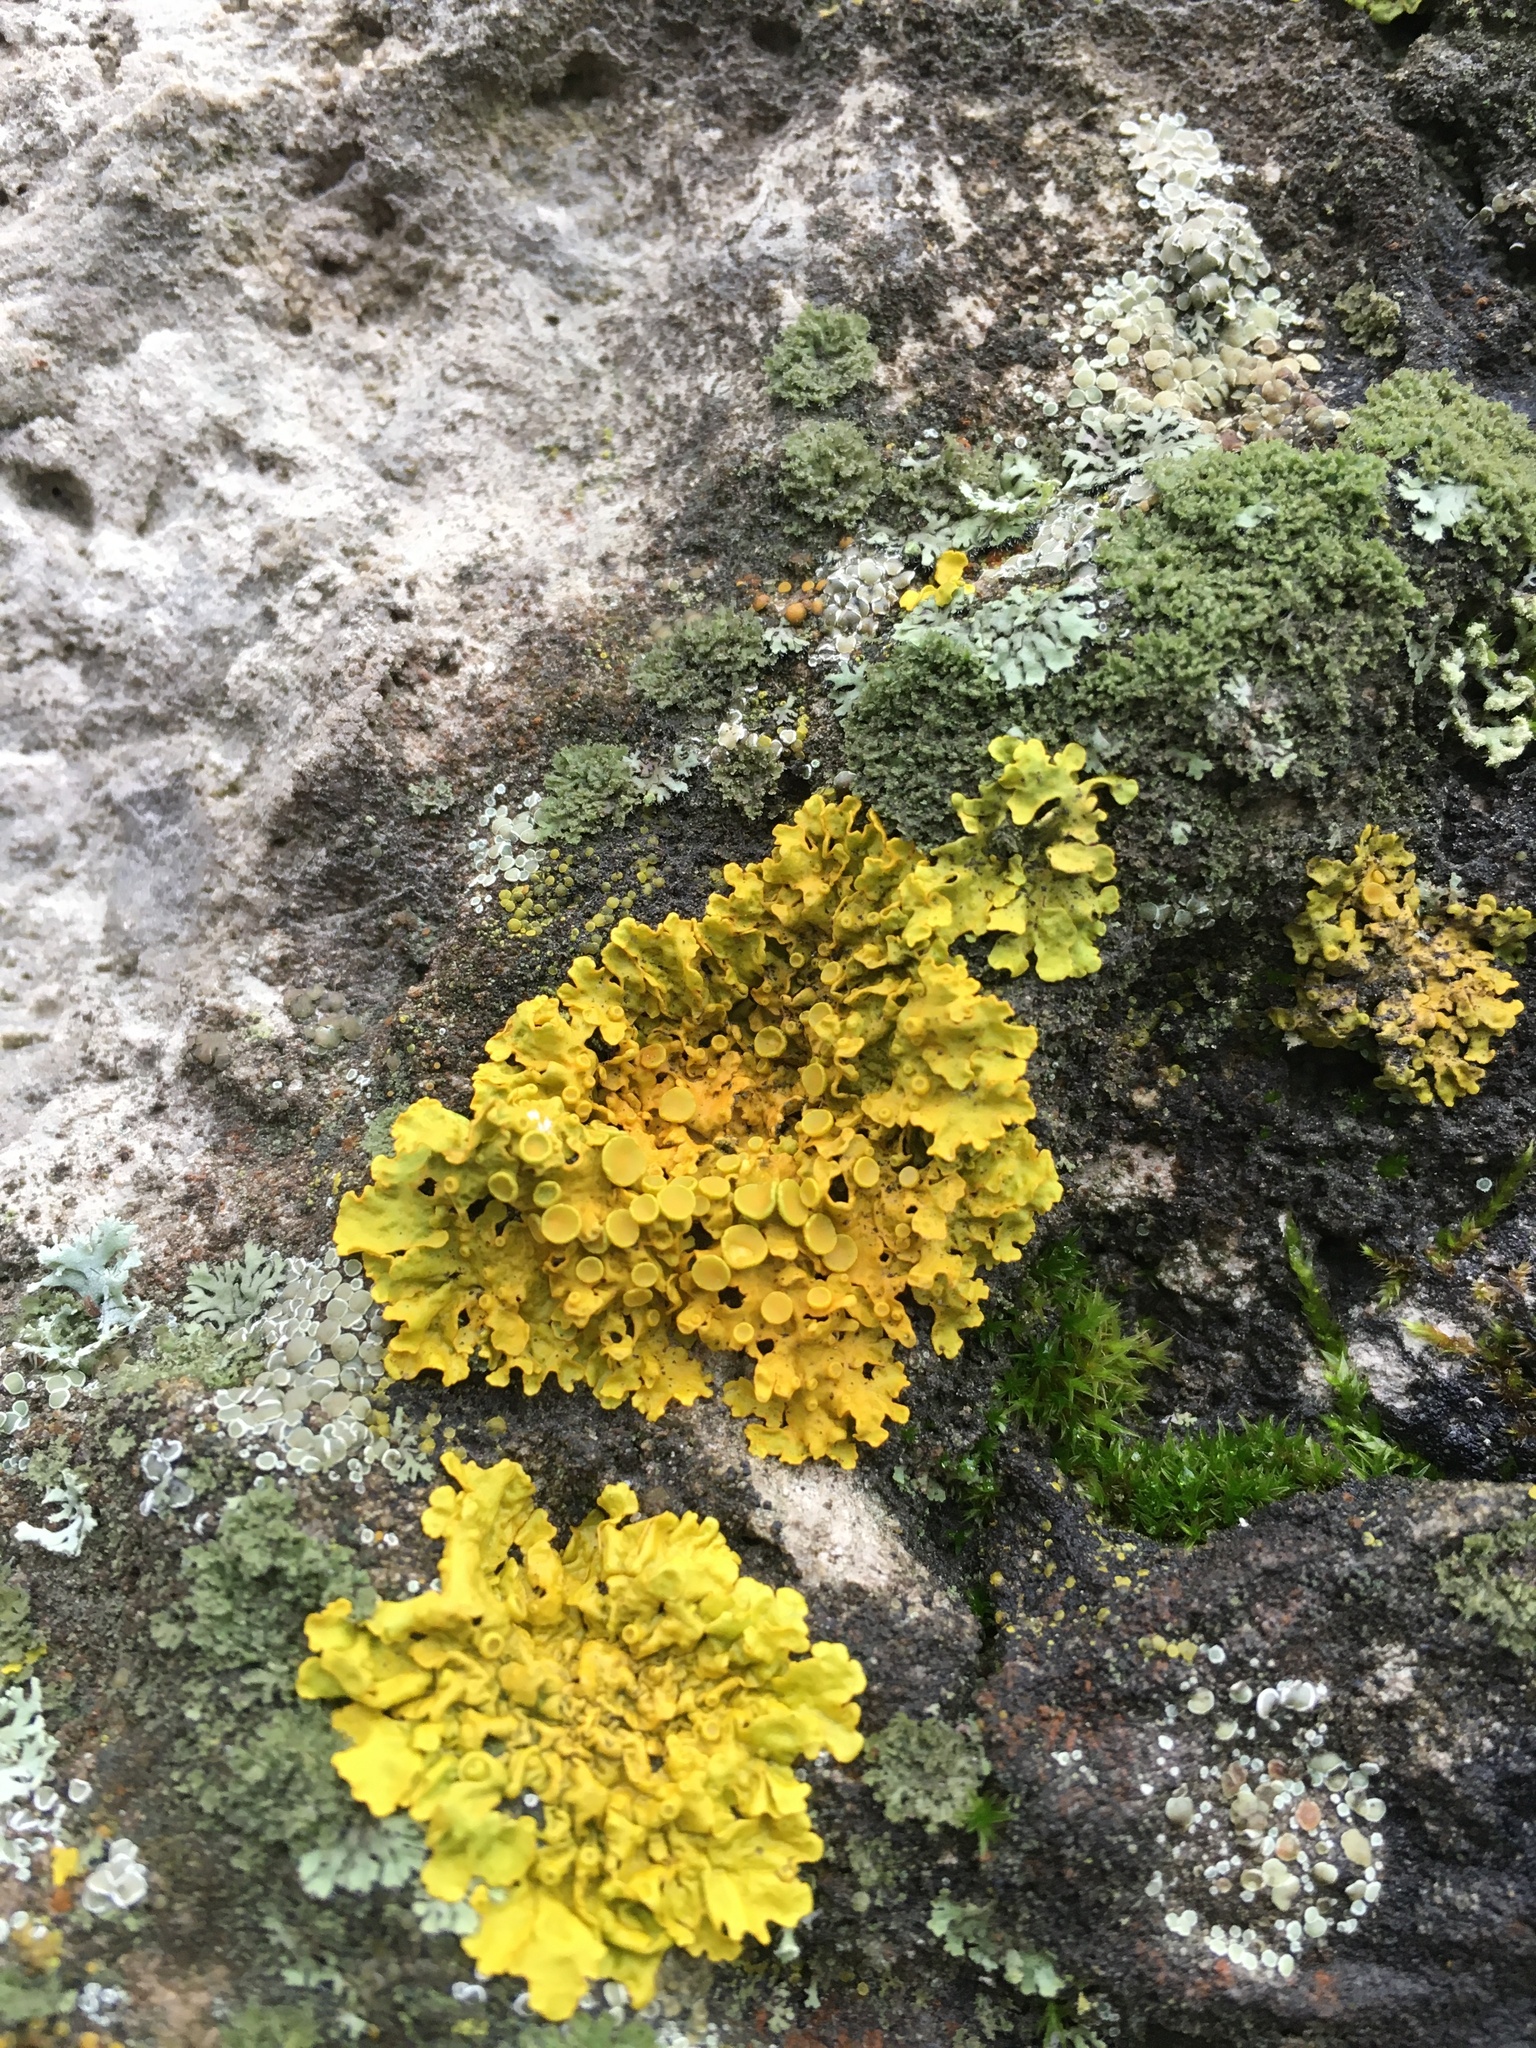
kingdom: Fungi
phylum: Ascomycota
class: Lecanoromycetes
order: Teloschistales
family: Teloschistaceae
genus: Xanthoria
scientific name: Xanthoria parietina
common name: Common orange lichen
